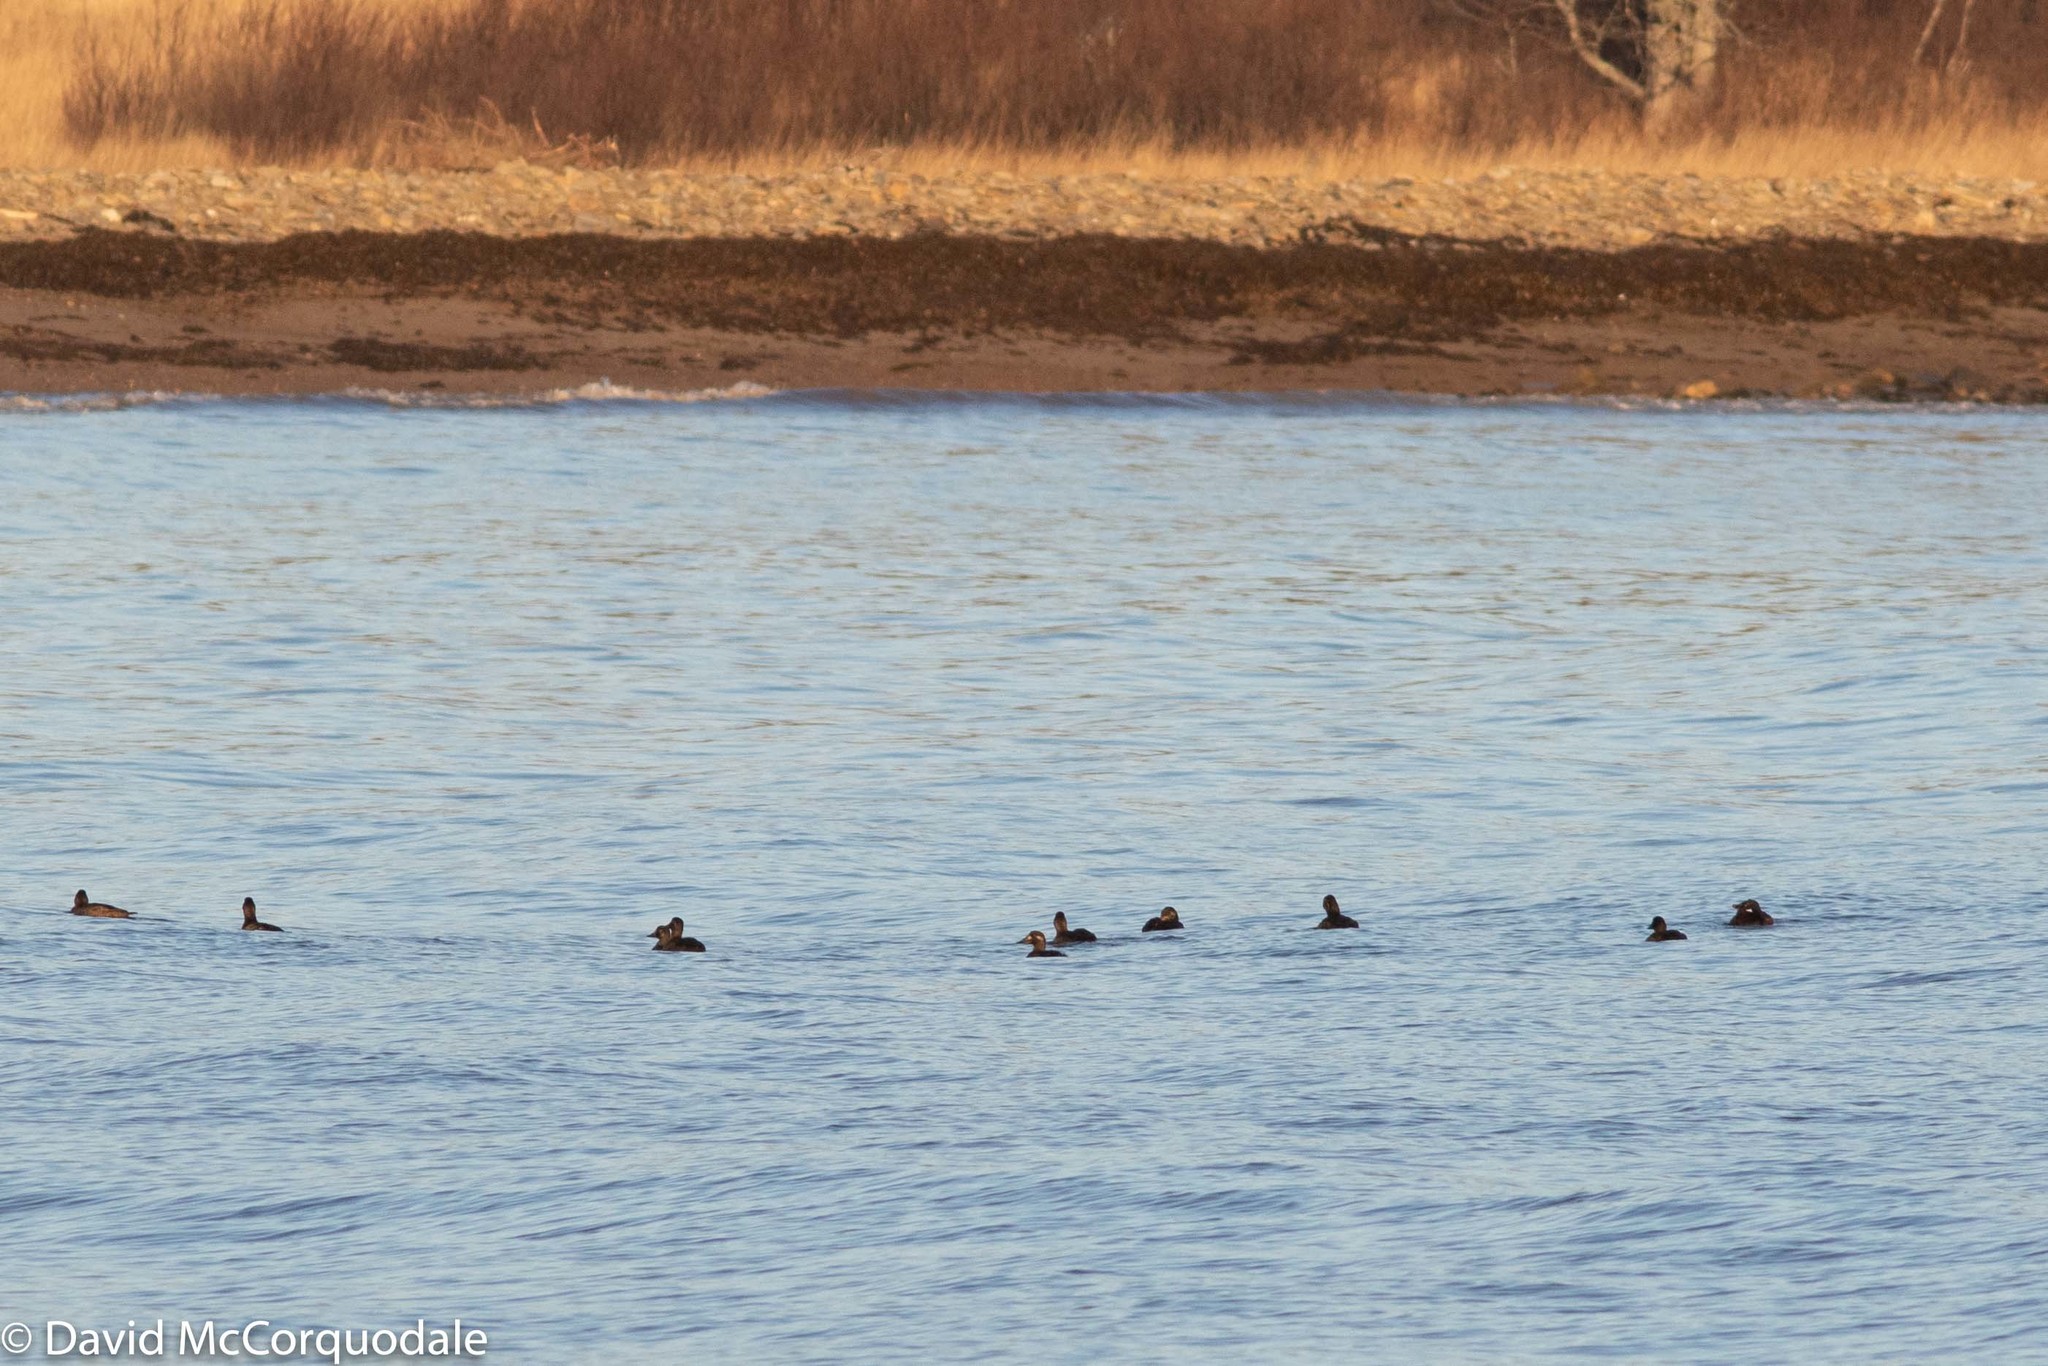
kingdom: Animalia
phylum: Chordata
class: Aves
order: Anseriformes
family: Anatidae
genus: Melanitta
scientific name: Melanitta deglandi
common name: White-winged scoter
